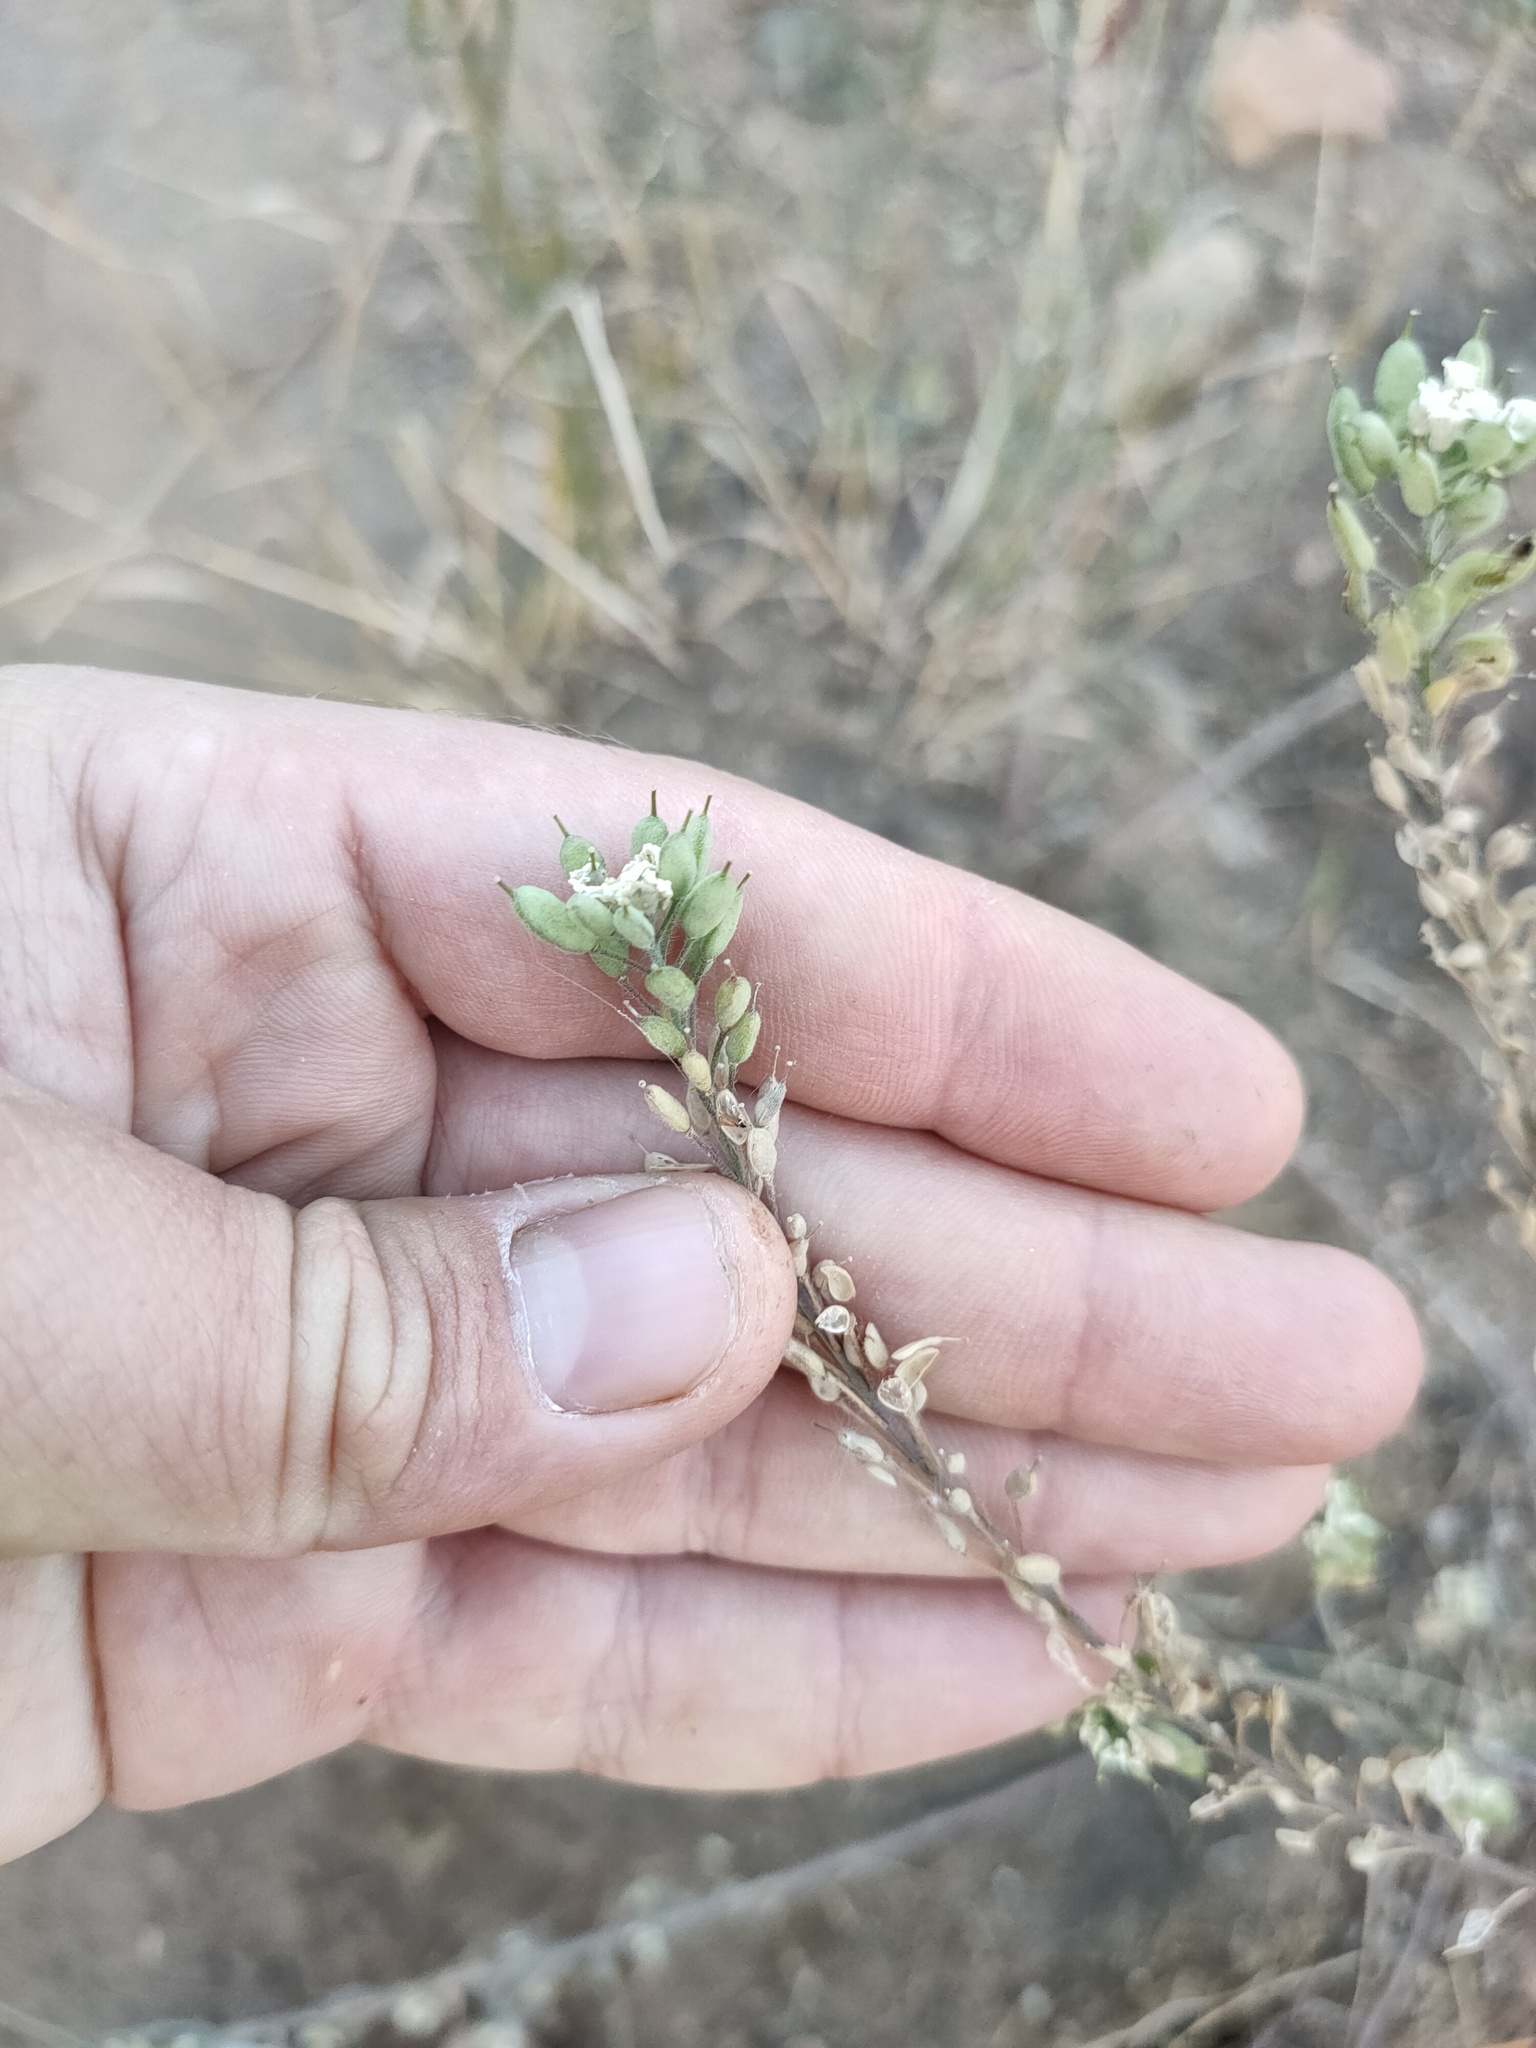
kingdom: Plantae
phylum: Tracheophyta
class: Magnoliopsida
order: Brassicales
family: Brassicaceae
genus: Berteroa
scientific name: Berteroa incana
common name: Hoary alison
